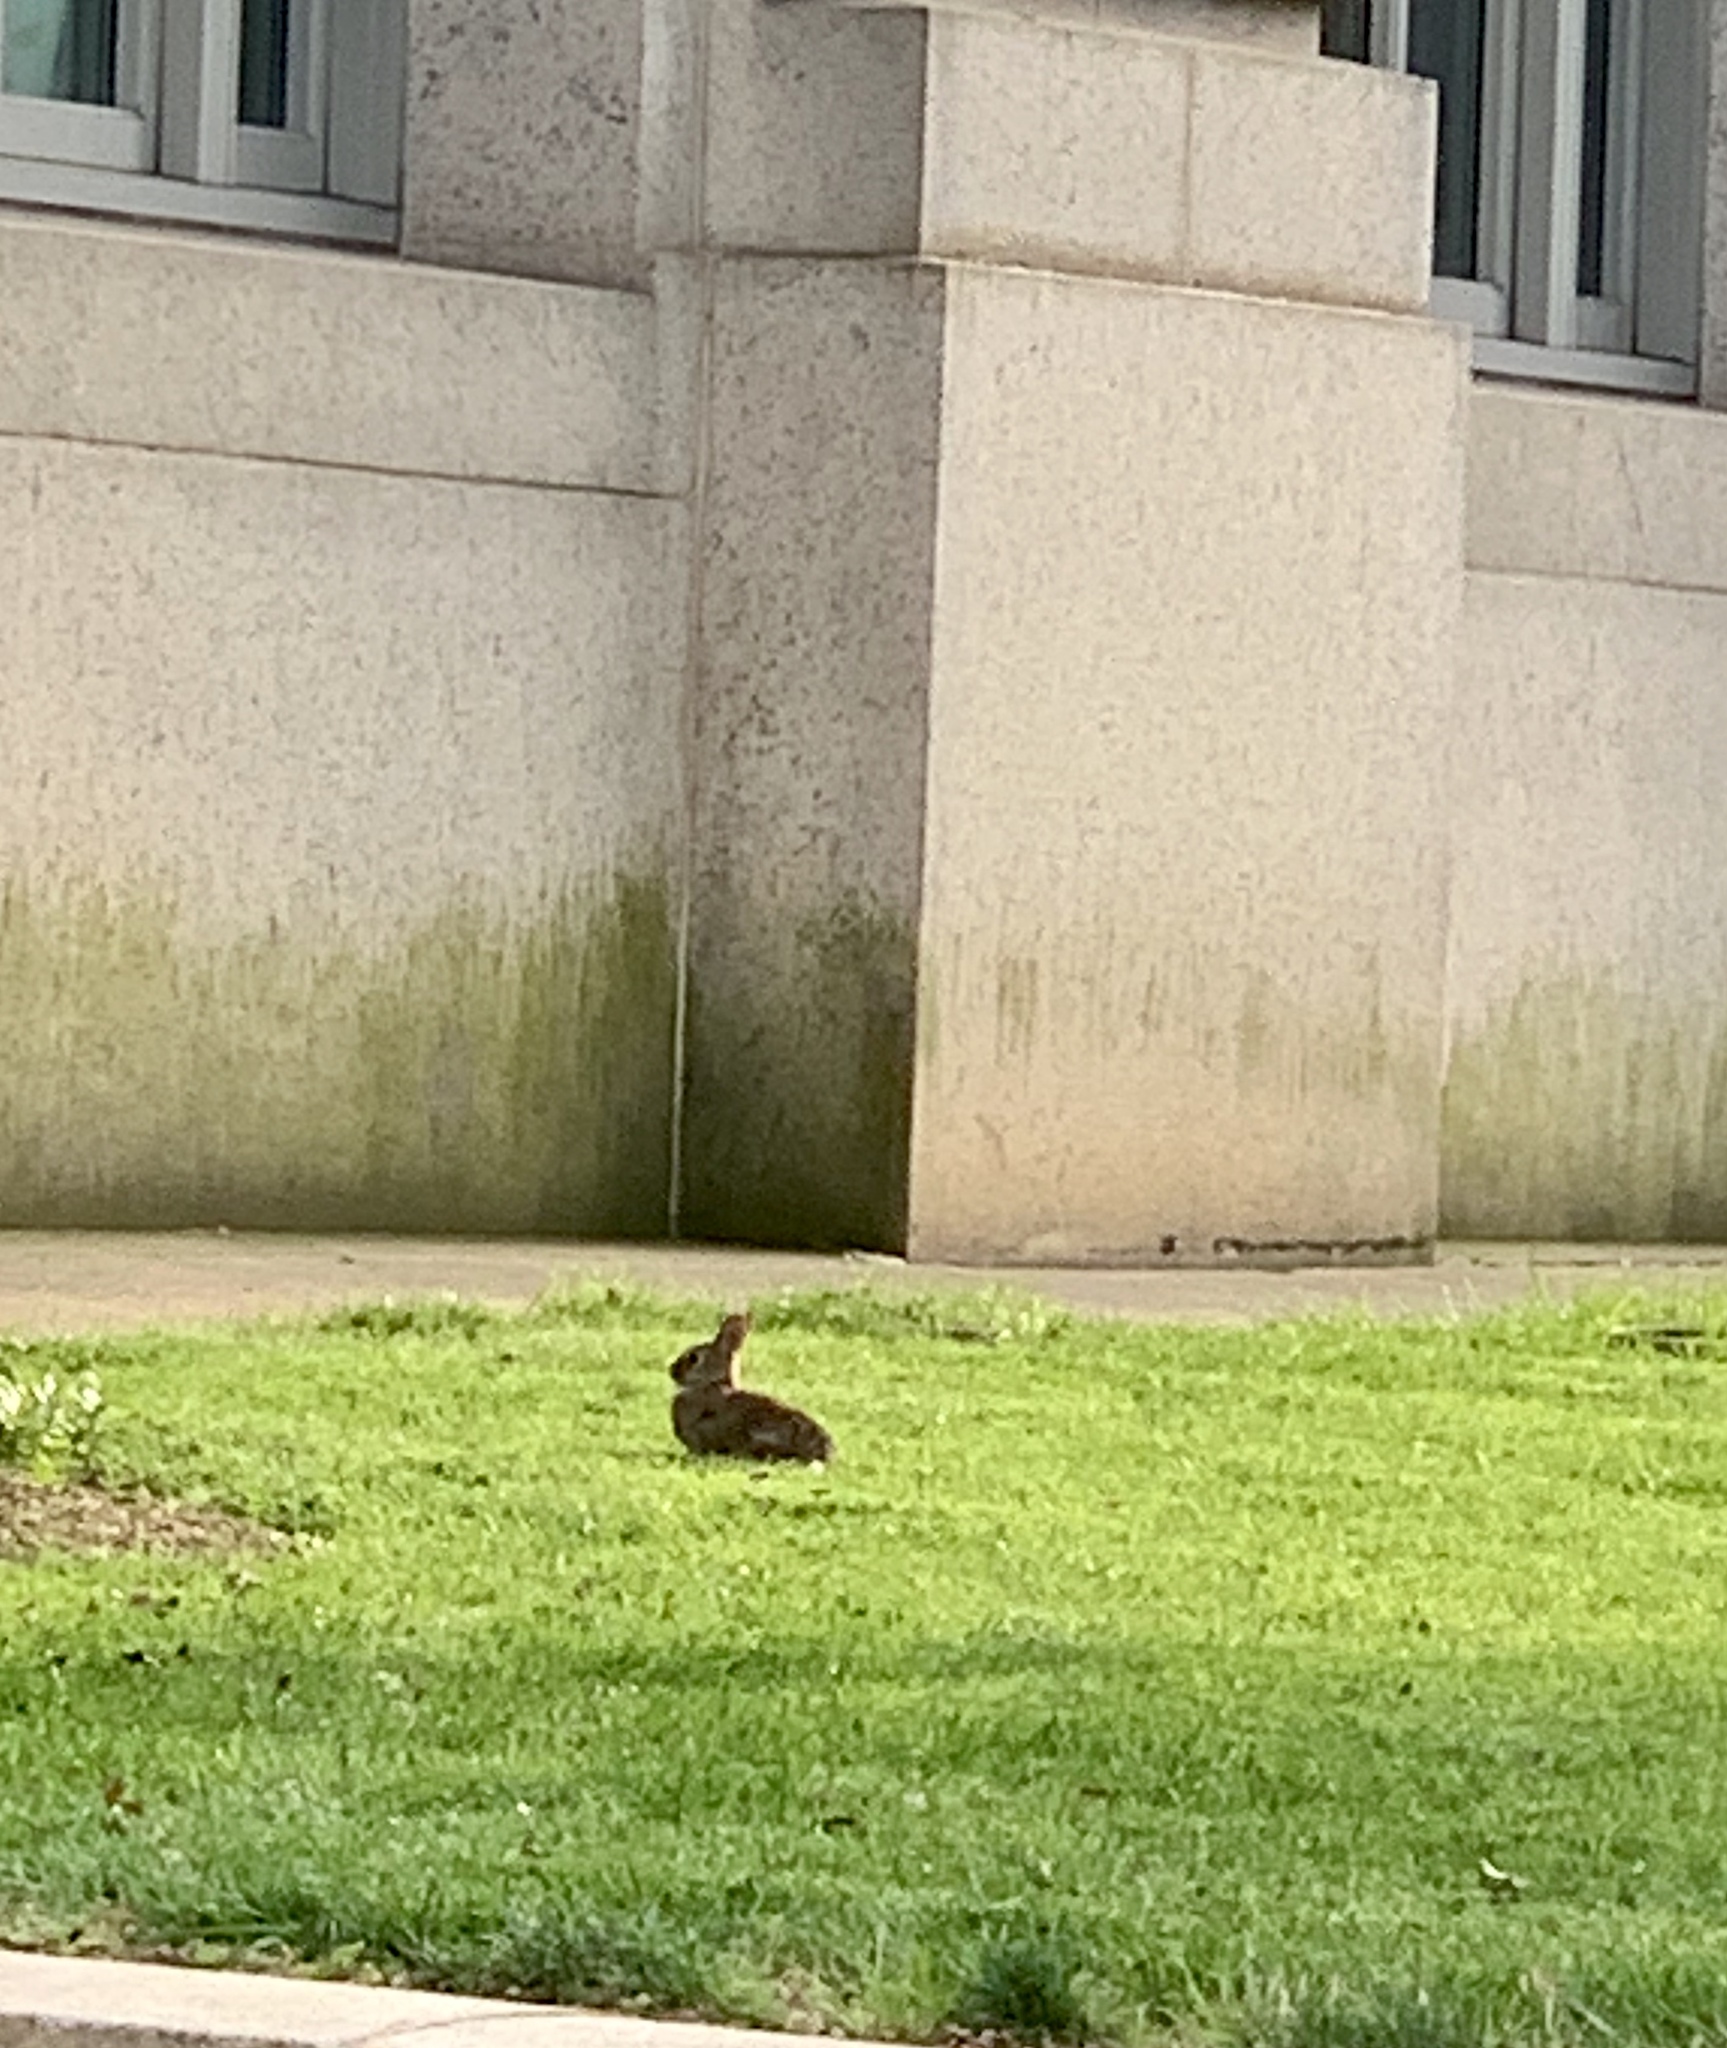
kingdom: Animalia
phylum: Chordata
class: Mammalia
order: Lagomorpha
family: Leporidae
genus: Sylvilagus
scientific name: Sylvilagus floridanus
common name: Eastern cottontail
